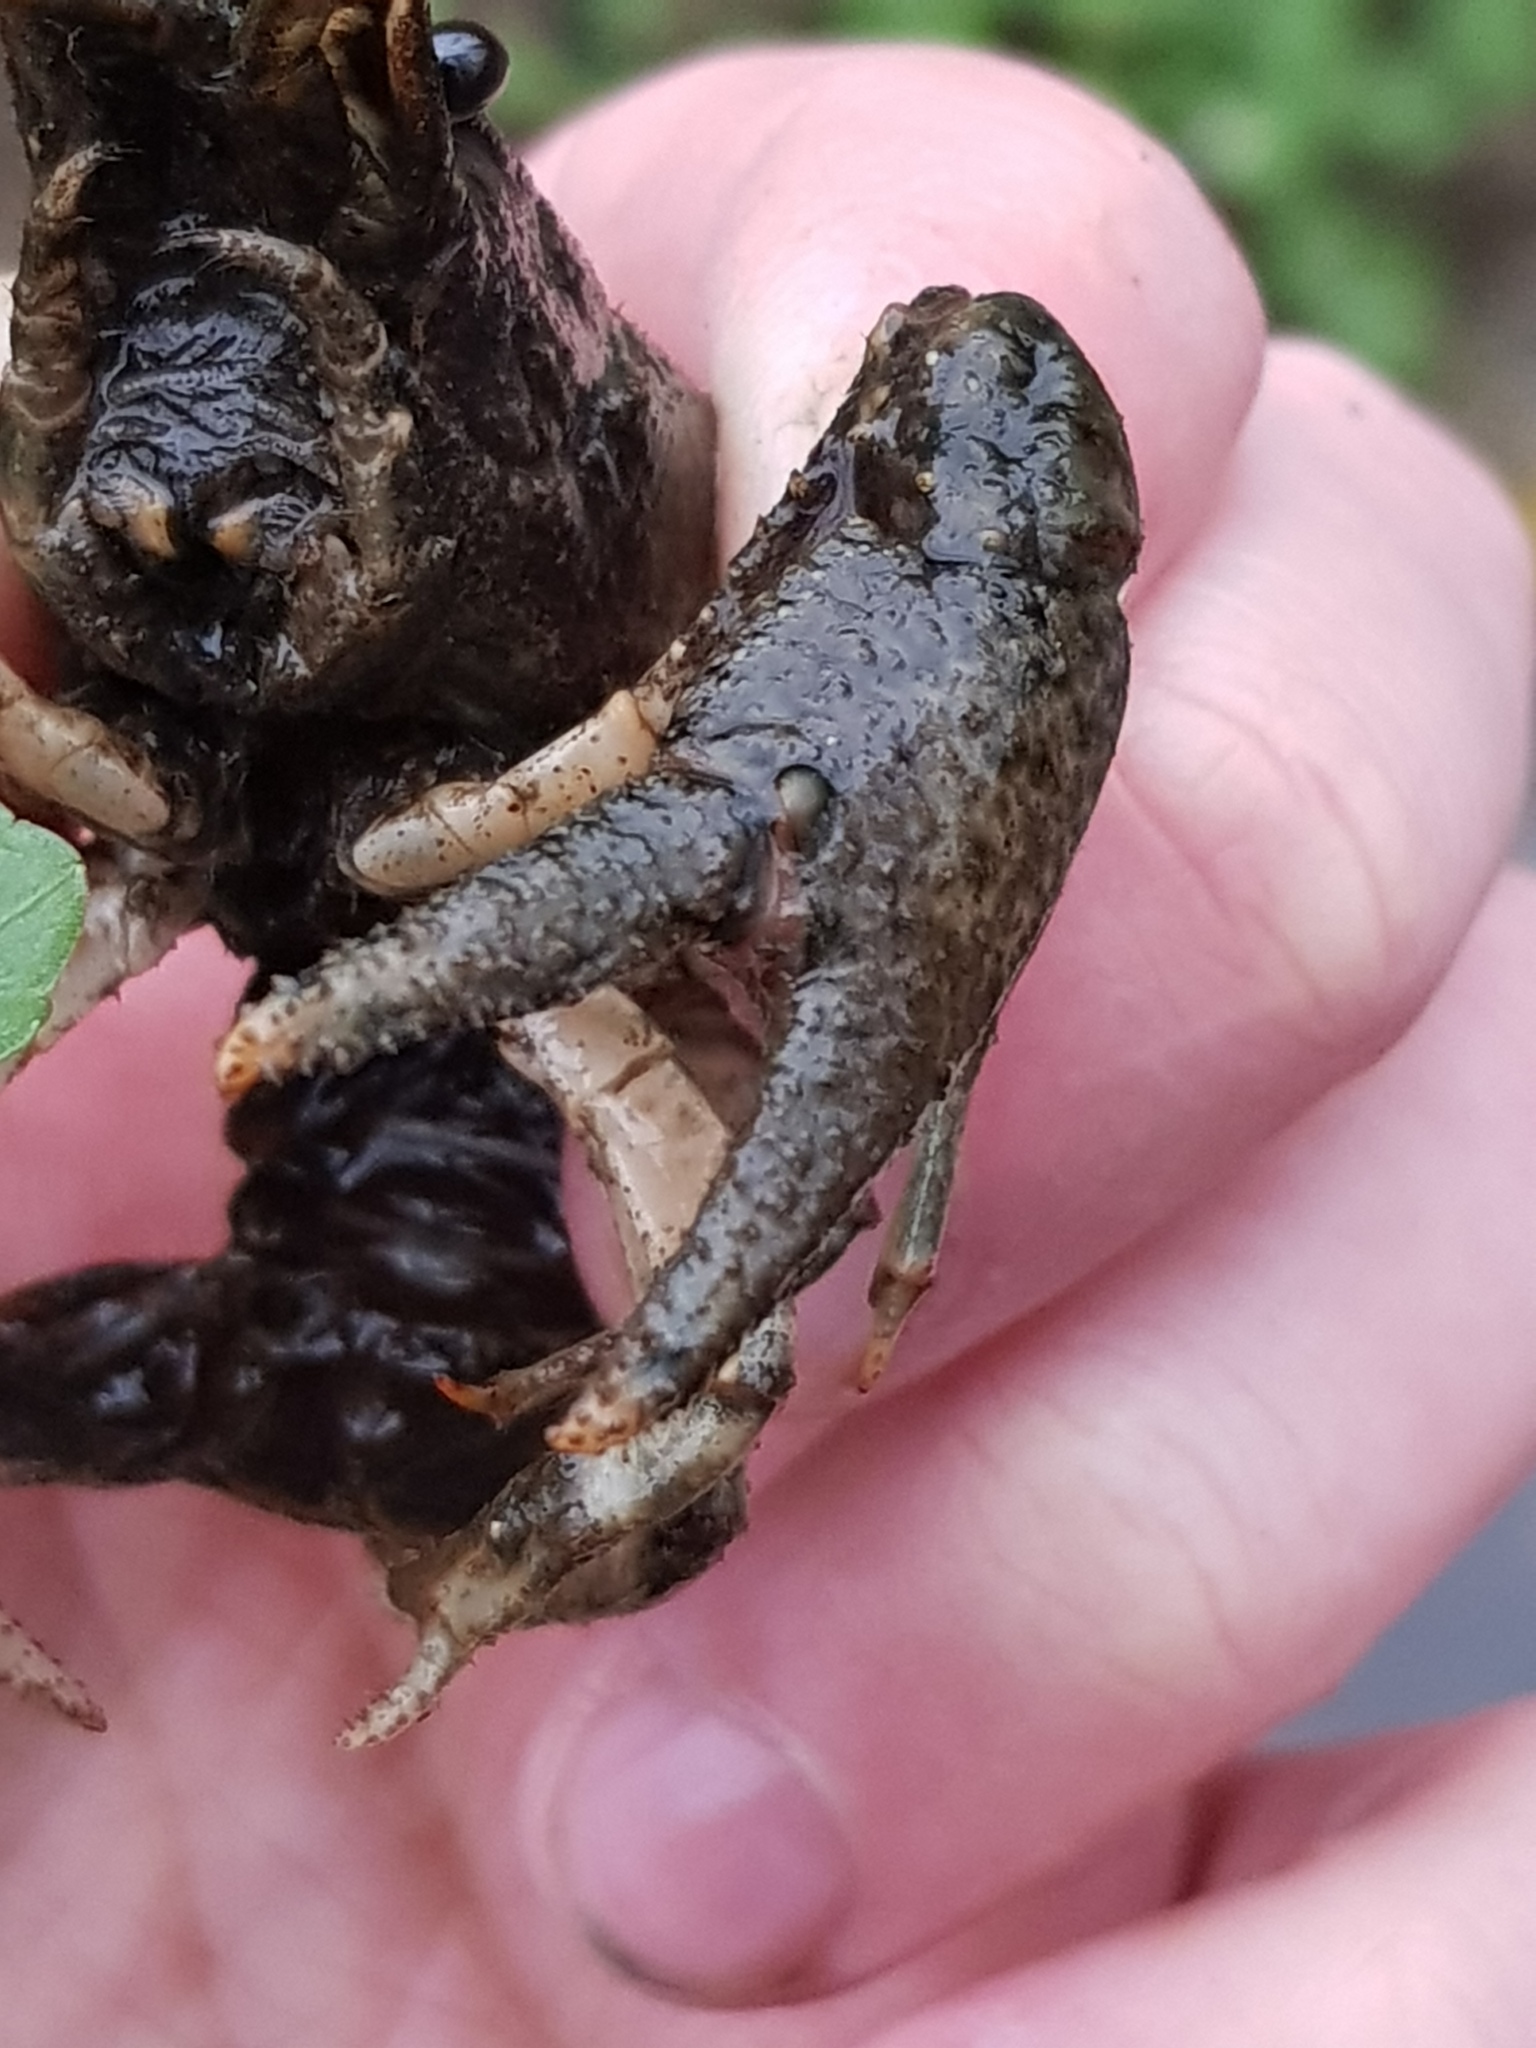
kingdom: Animalia
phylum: Arthropoda
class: Malacostraca
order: Decapoda
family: Cambaridae
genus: Faxonius
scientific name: Faxonius limosus
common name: American crayfish
